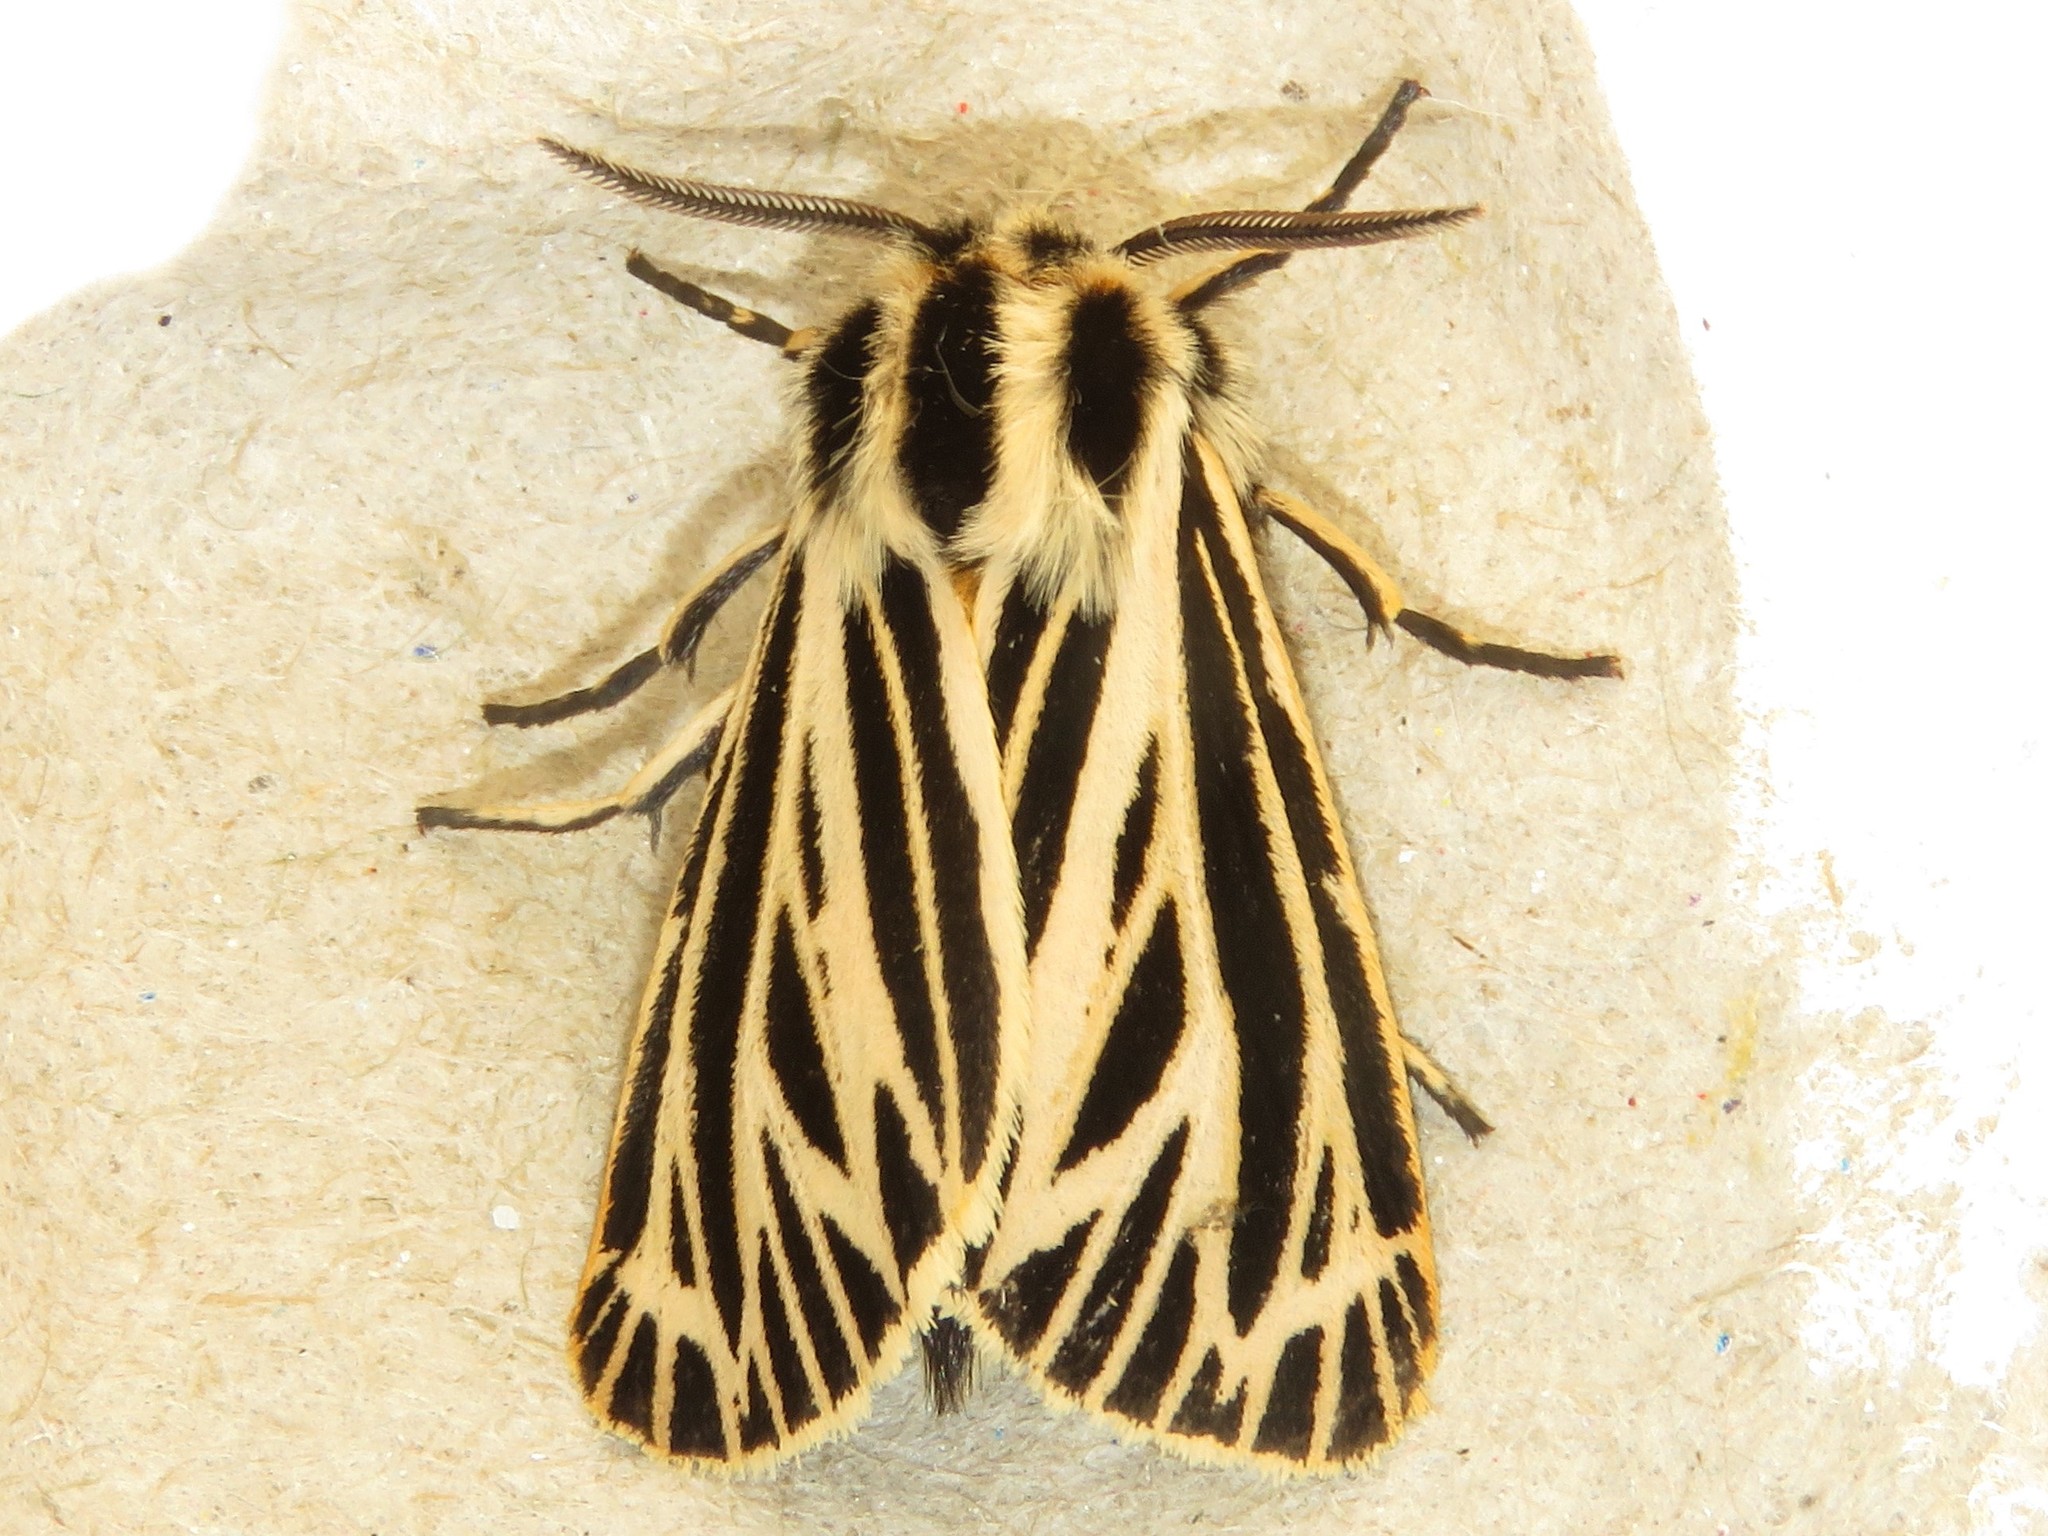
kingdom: Animalia
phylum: Arthropoda
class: Insecta
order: Lepidoptera
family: Erebidae
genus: Grammia
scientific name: Grammia virguncula
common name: Little tiger moth
